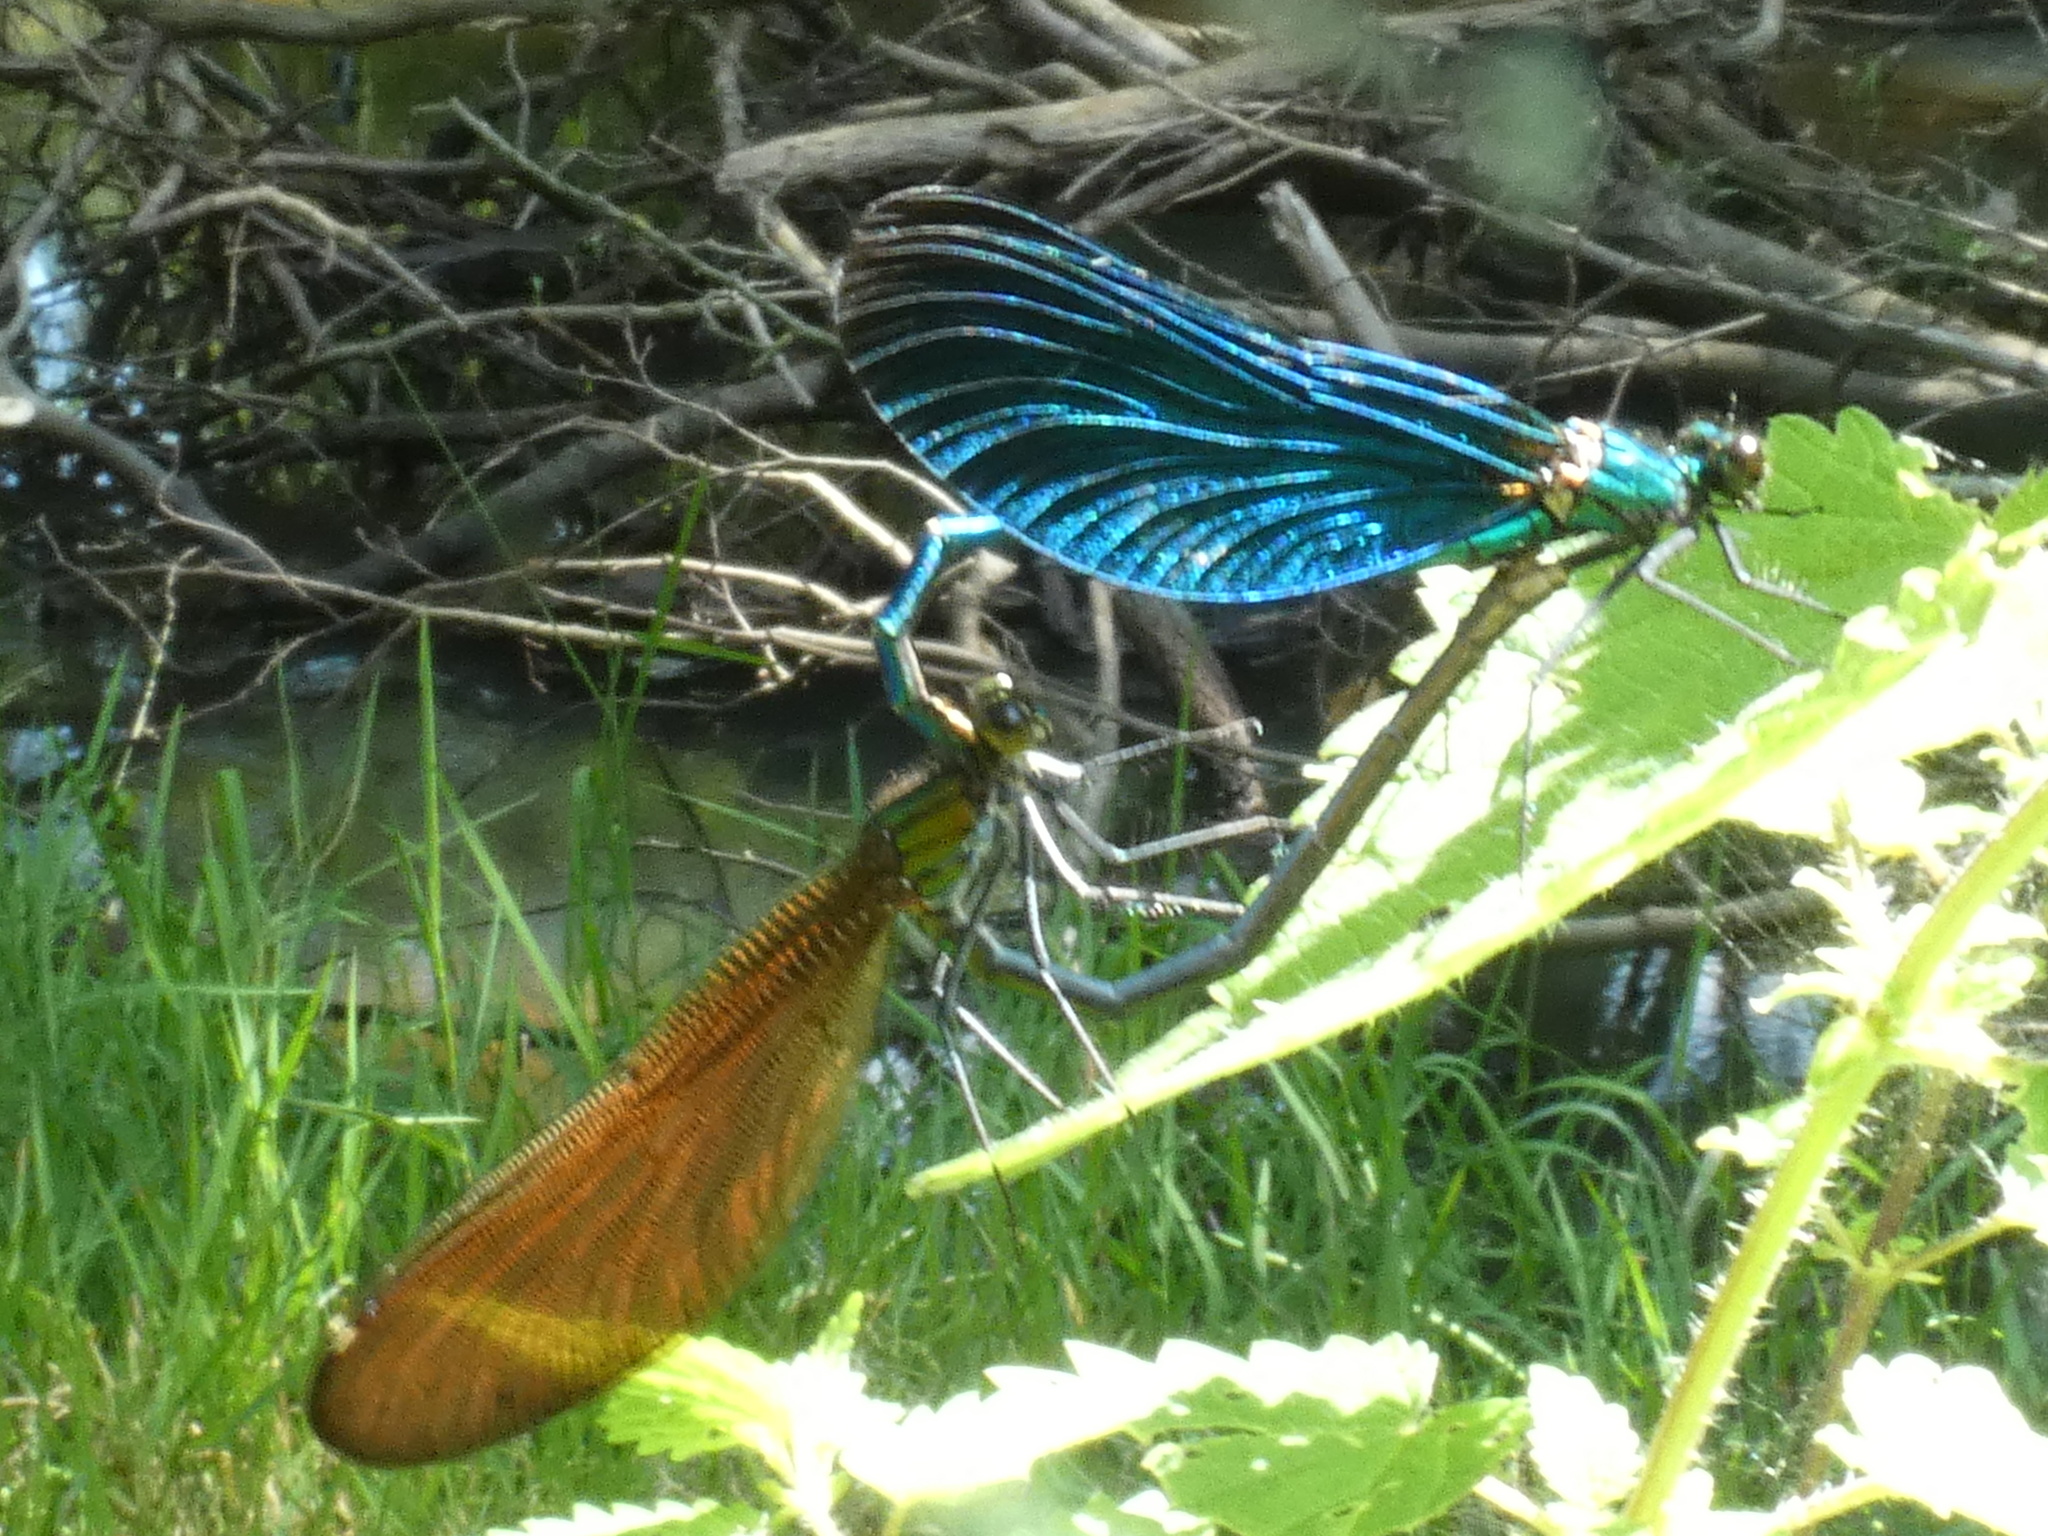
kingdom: Animalia
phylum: Arthropoda
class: Insecta
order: Odonata
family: Calopterygidae
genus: Calopteryx
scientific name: Calopteryx virgo
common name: Beautiful demoiselle
